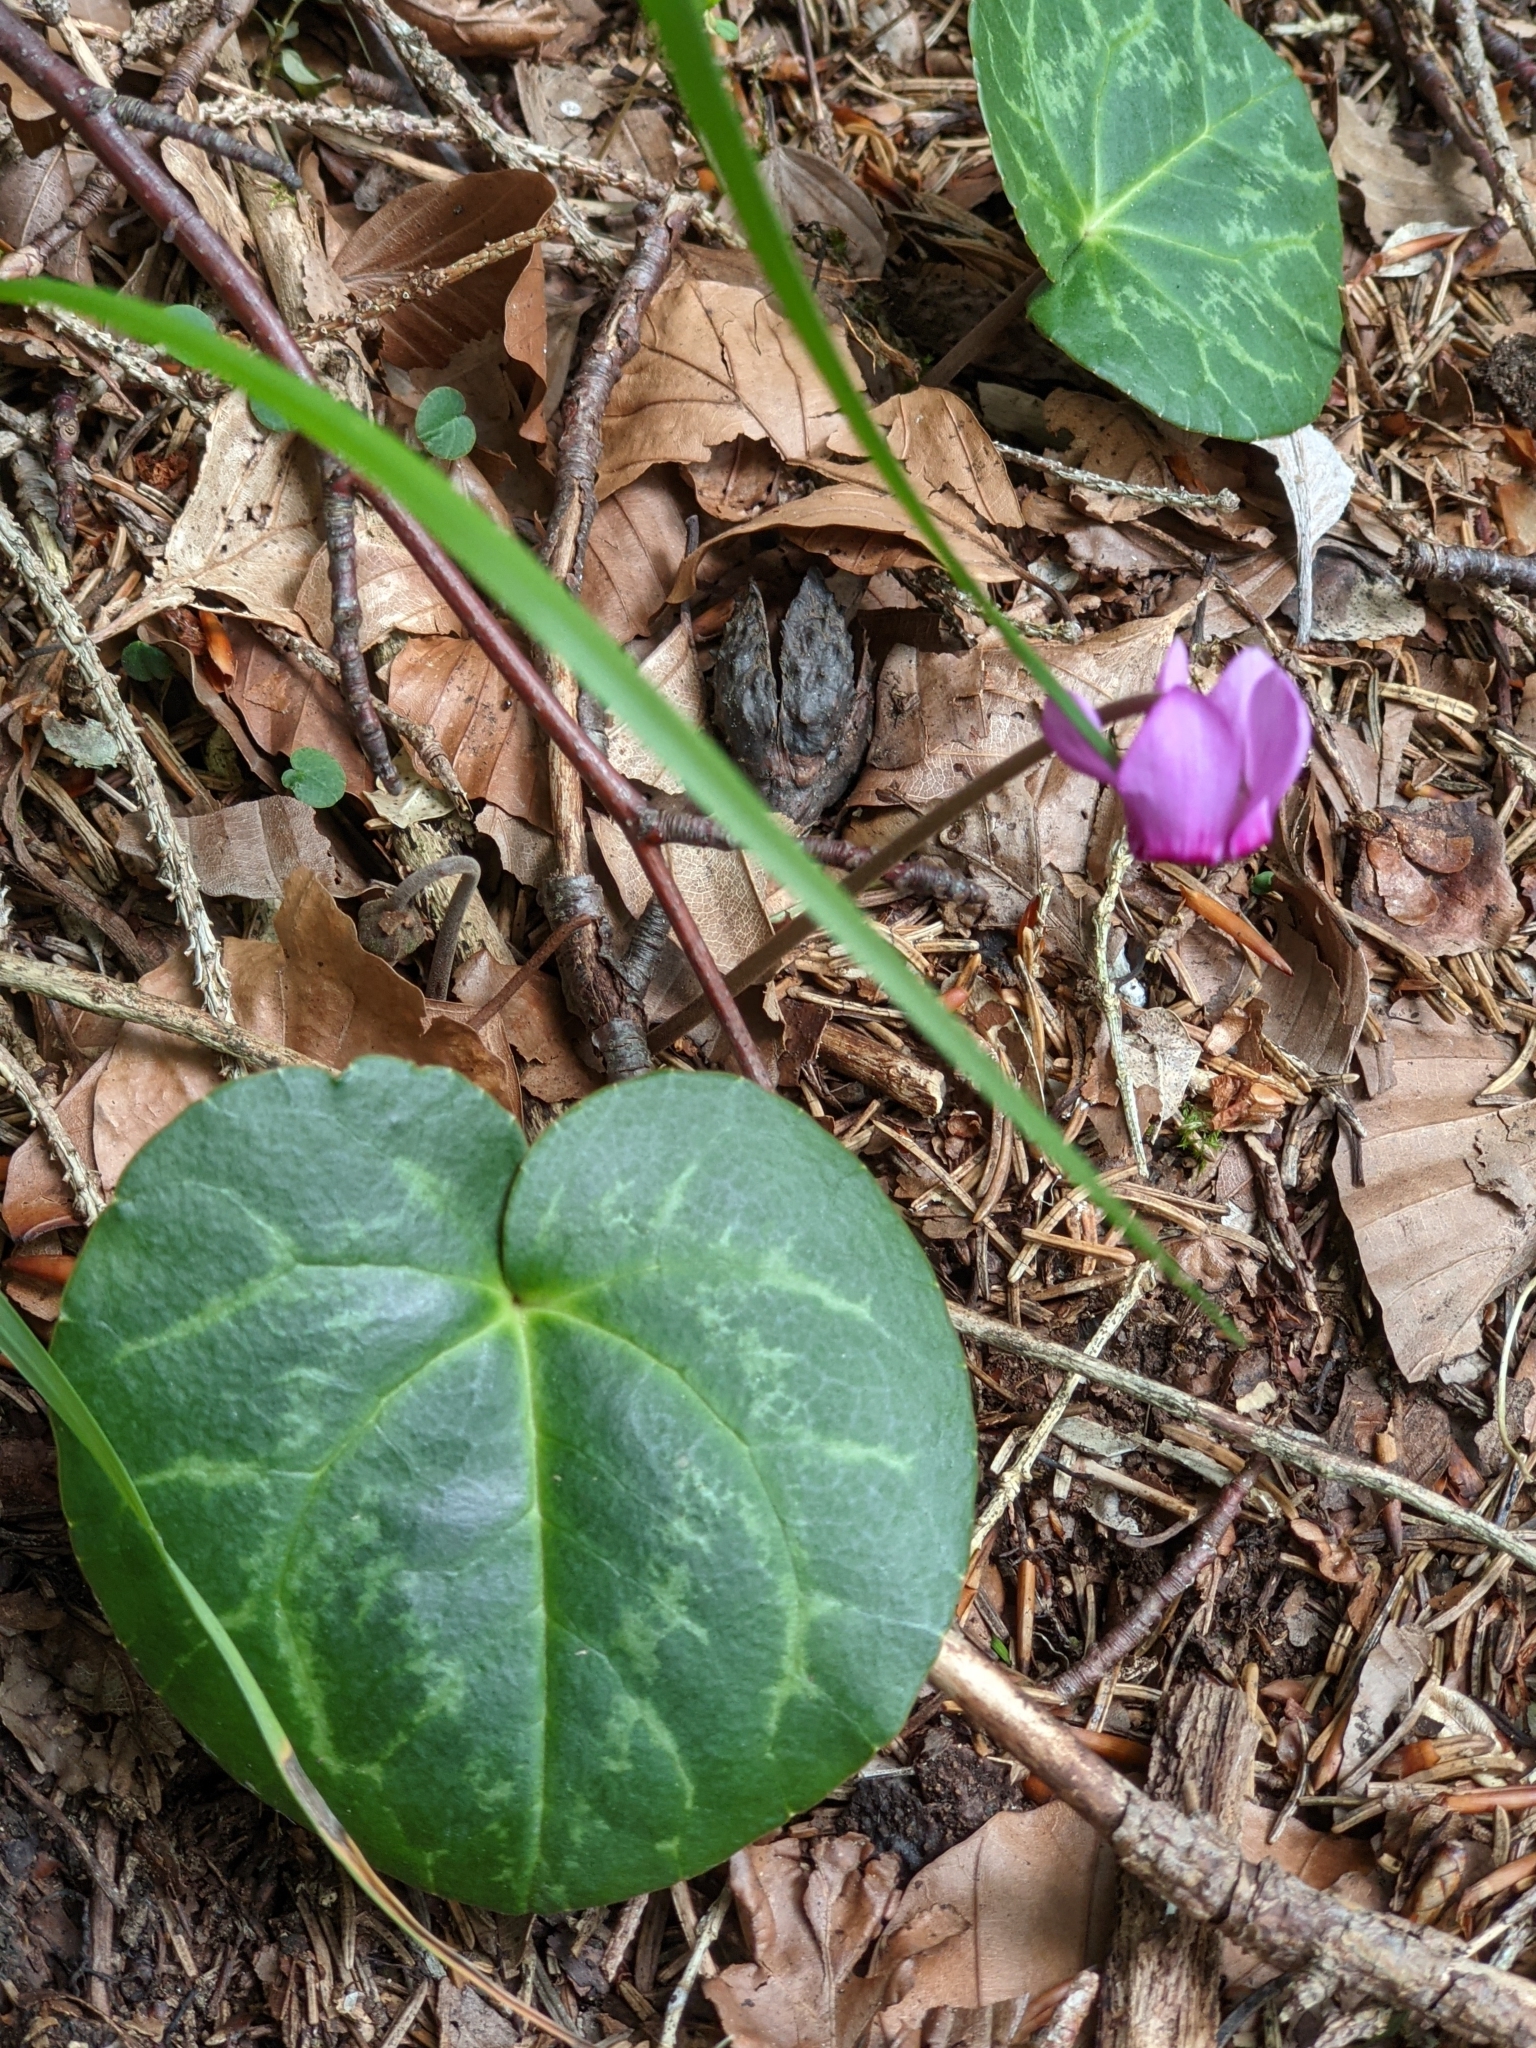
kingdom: Plantae
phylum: Tracheophyta
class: Magnoliopsida
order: Ericales
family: Primulaceae
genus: Cyclamen
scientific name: Cyclamen purpurascens
